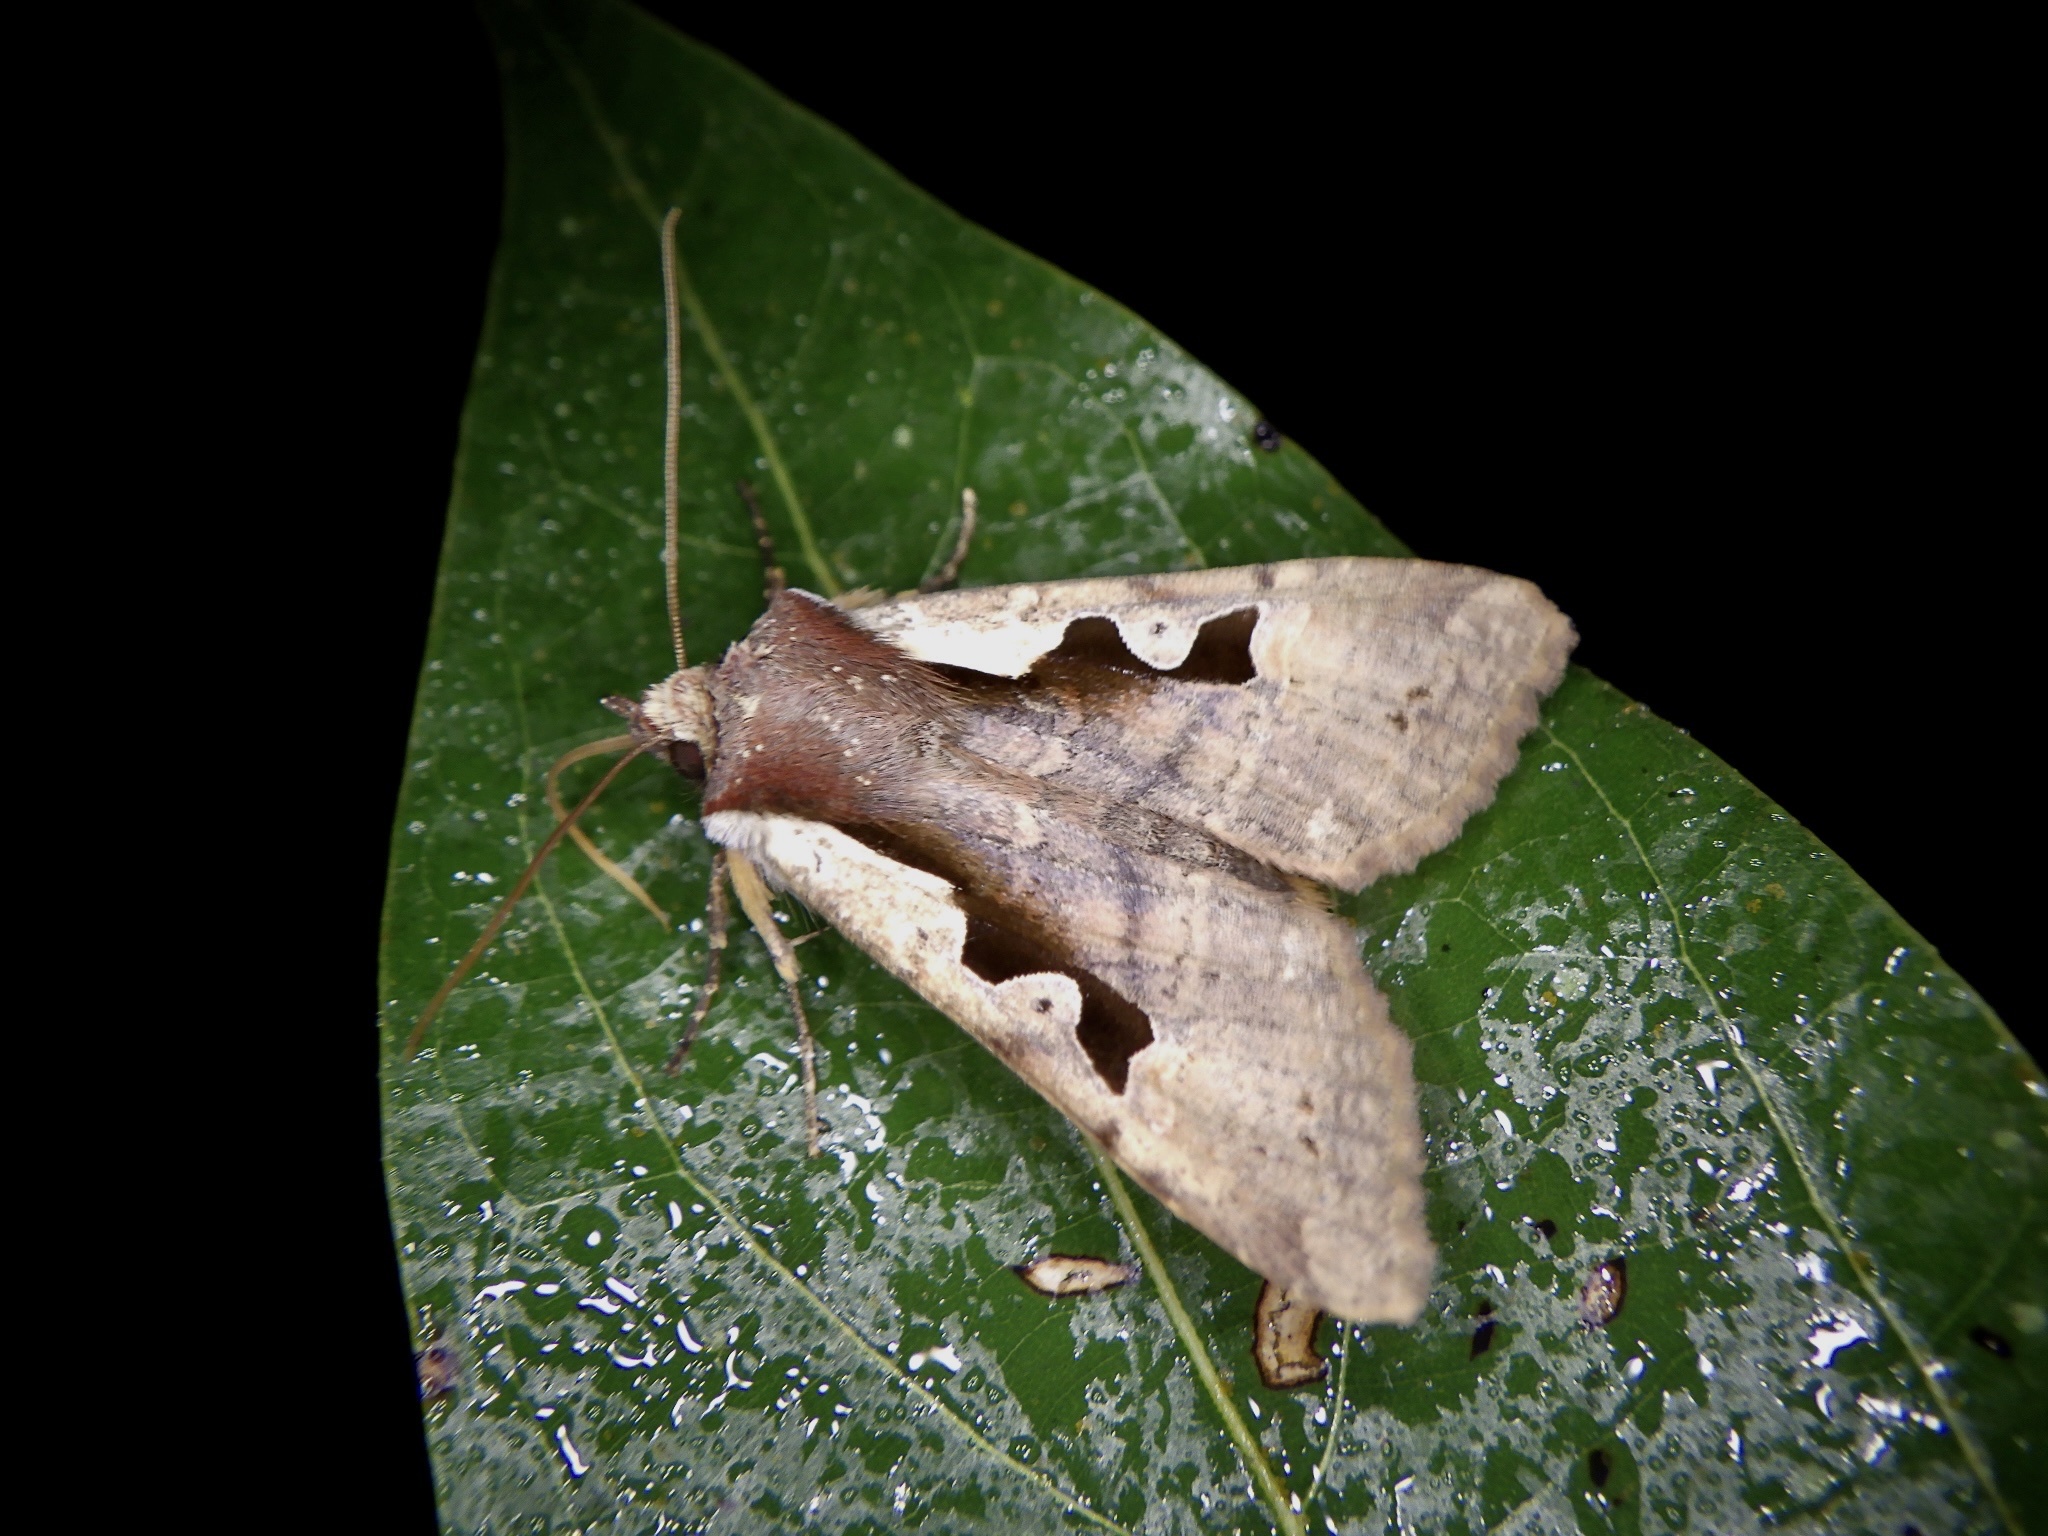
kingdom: Animalia
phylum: Arthropoda
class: Insecta
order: Lepidoptera
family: Noctuidae
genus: Sugitania
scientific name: Sugitania
